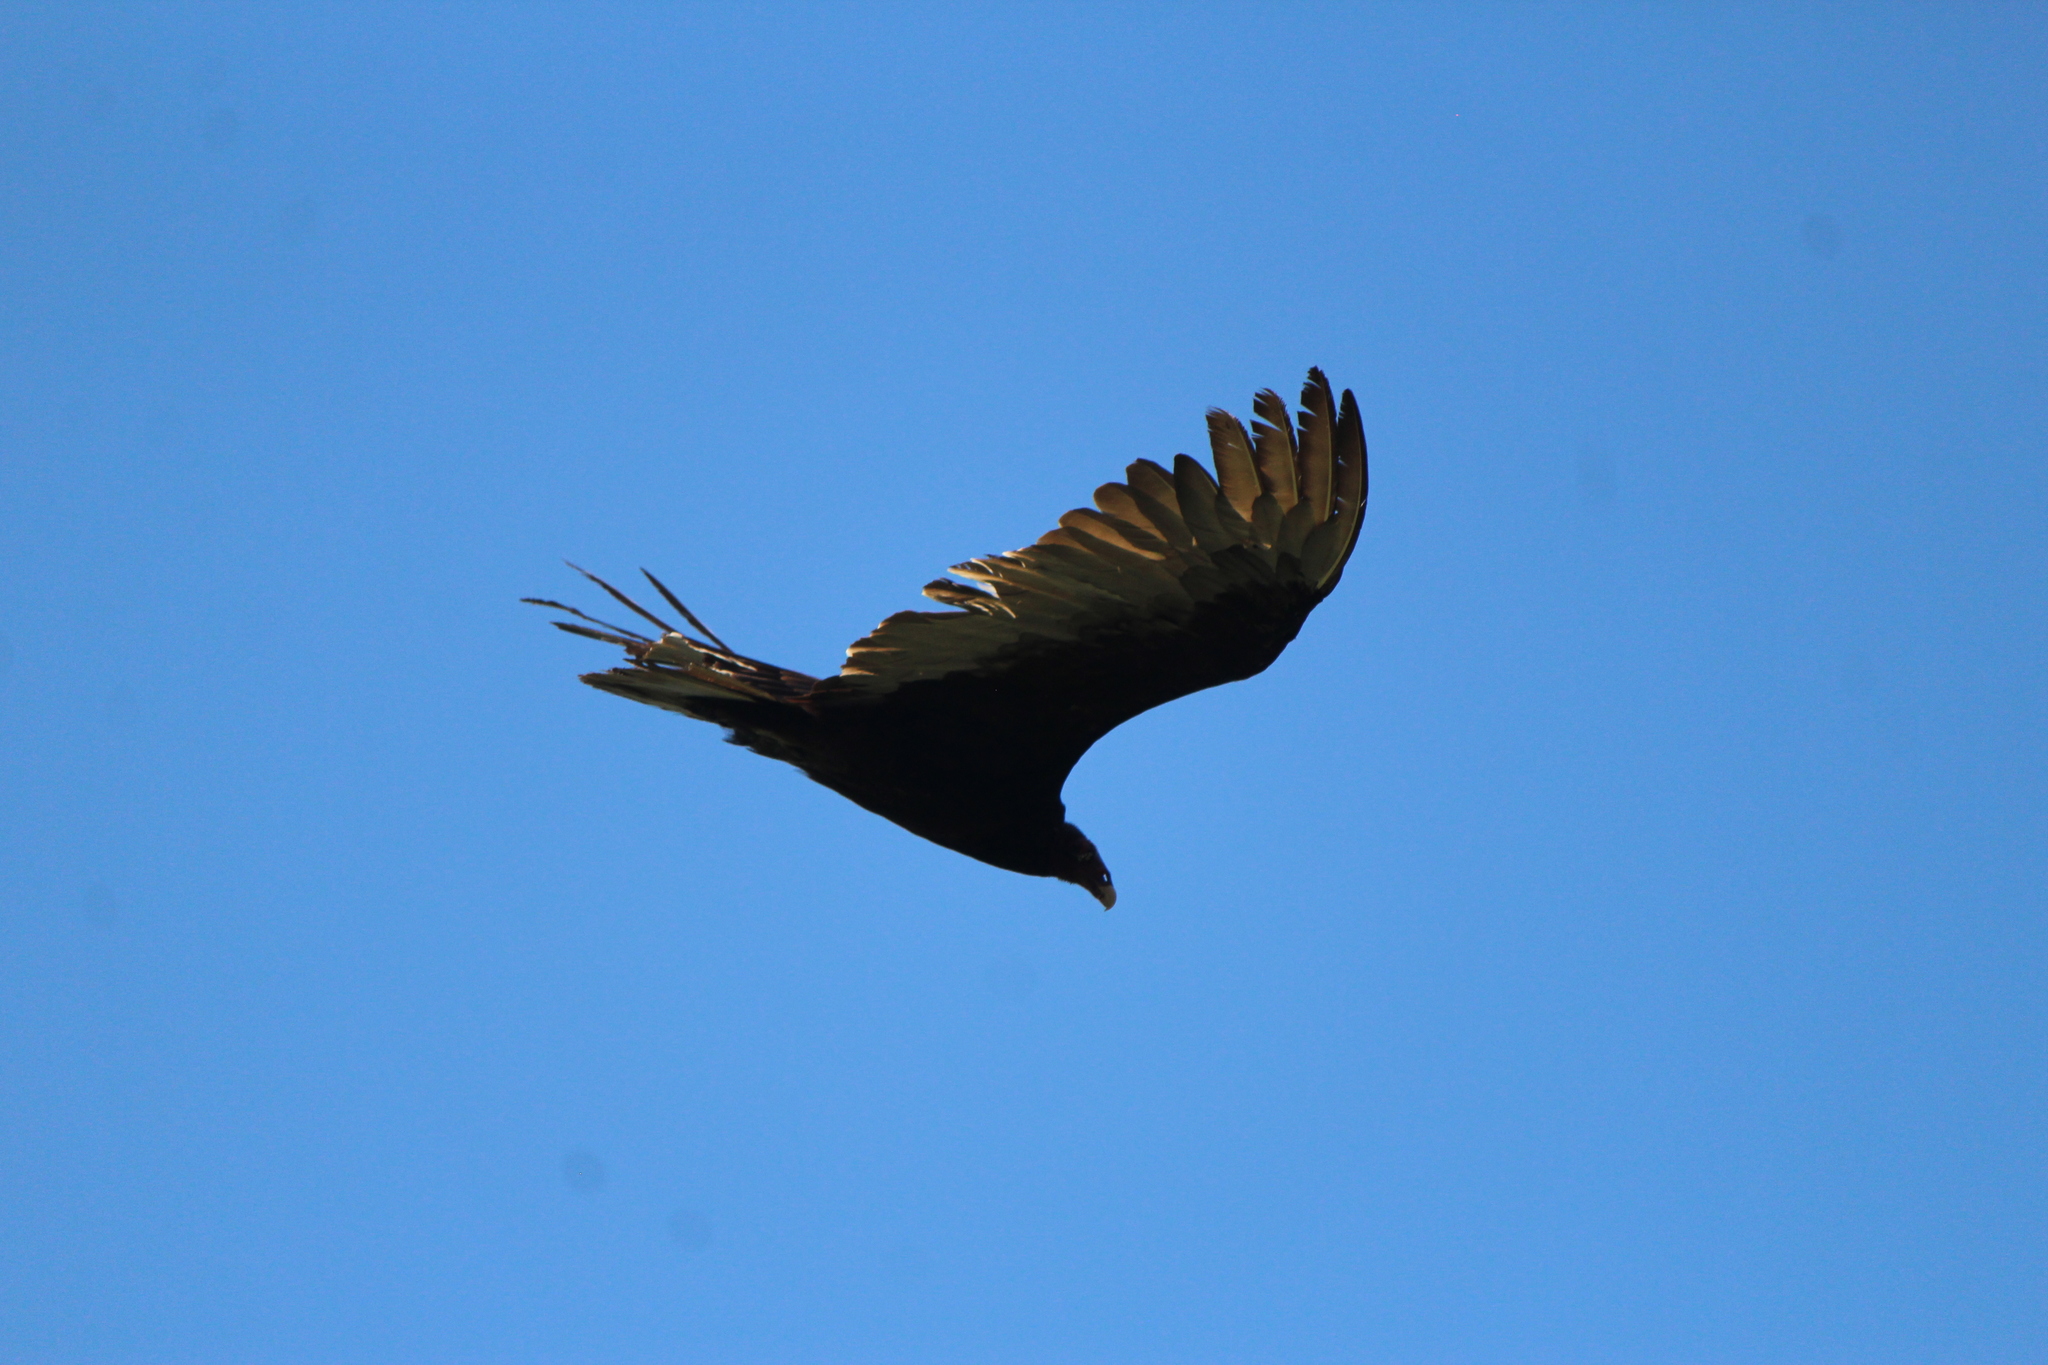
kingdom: Animalia
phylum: Chordata
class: Aves
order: Accipitriformes
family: Cathartidae
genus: Cathartes
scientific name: Cathartes aura
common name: Turkey vulture
